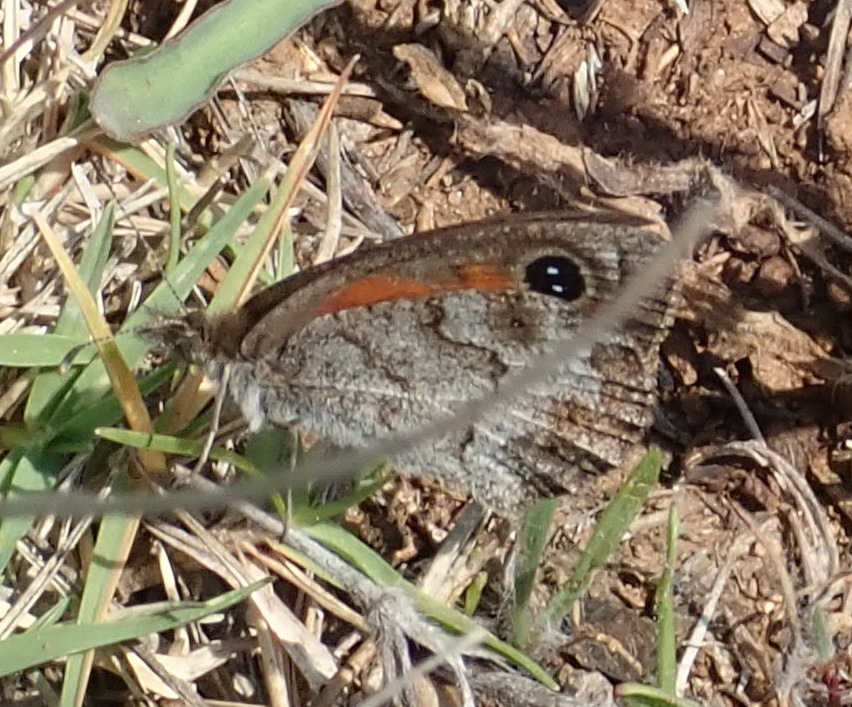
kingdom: Animalia
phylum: Arthropoda
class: Insecta
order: Lepidoptera
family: Nymphalidae
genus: Pseudonympha
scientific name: Pseudonympha magoides
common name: False silver-bottom brown
